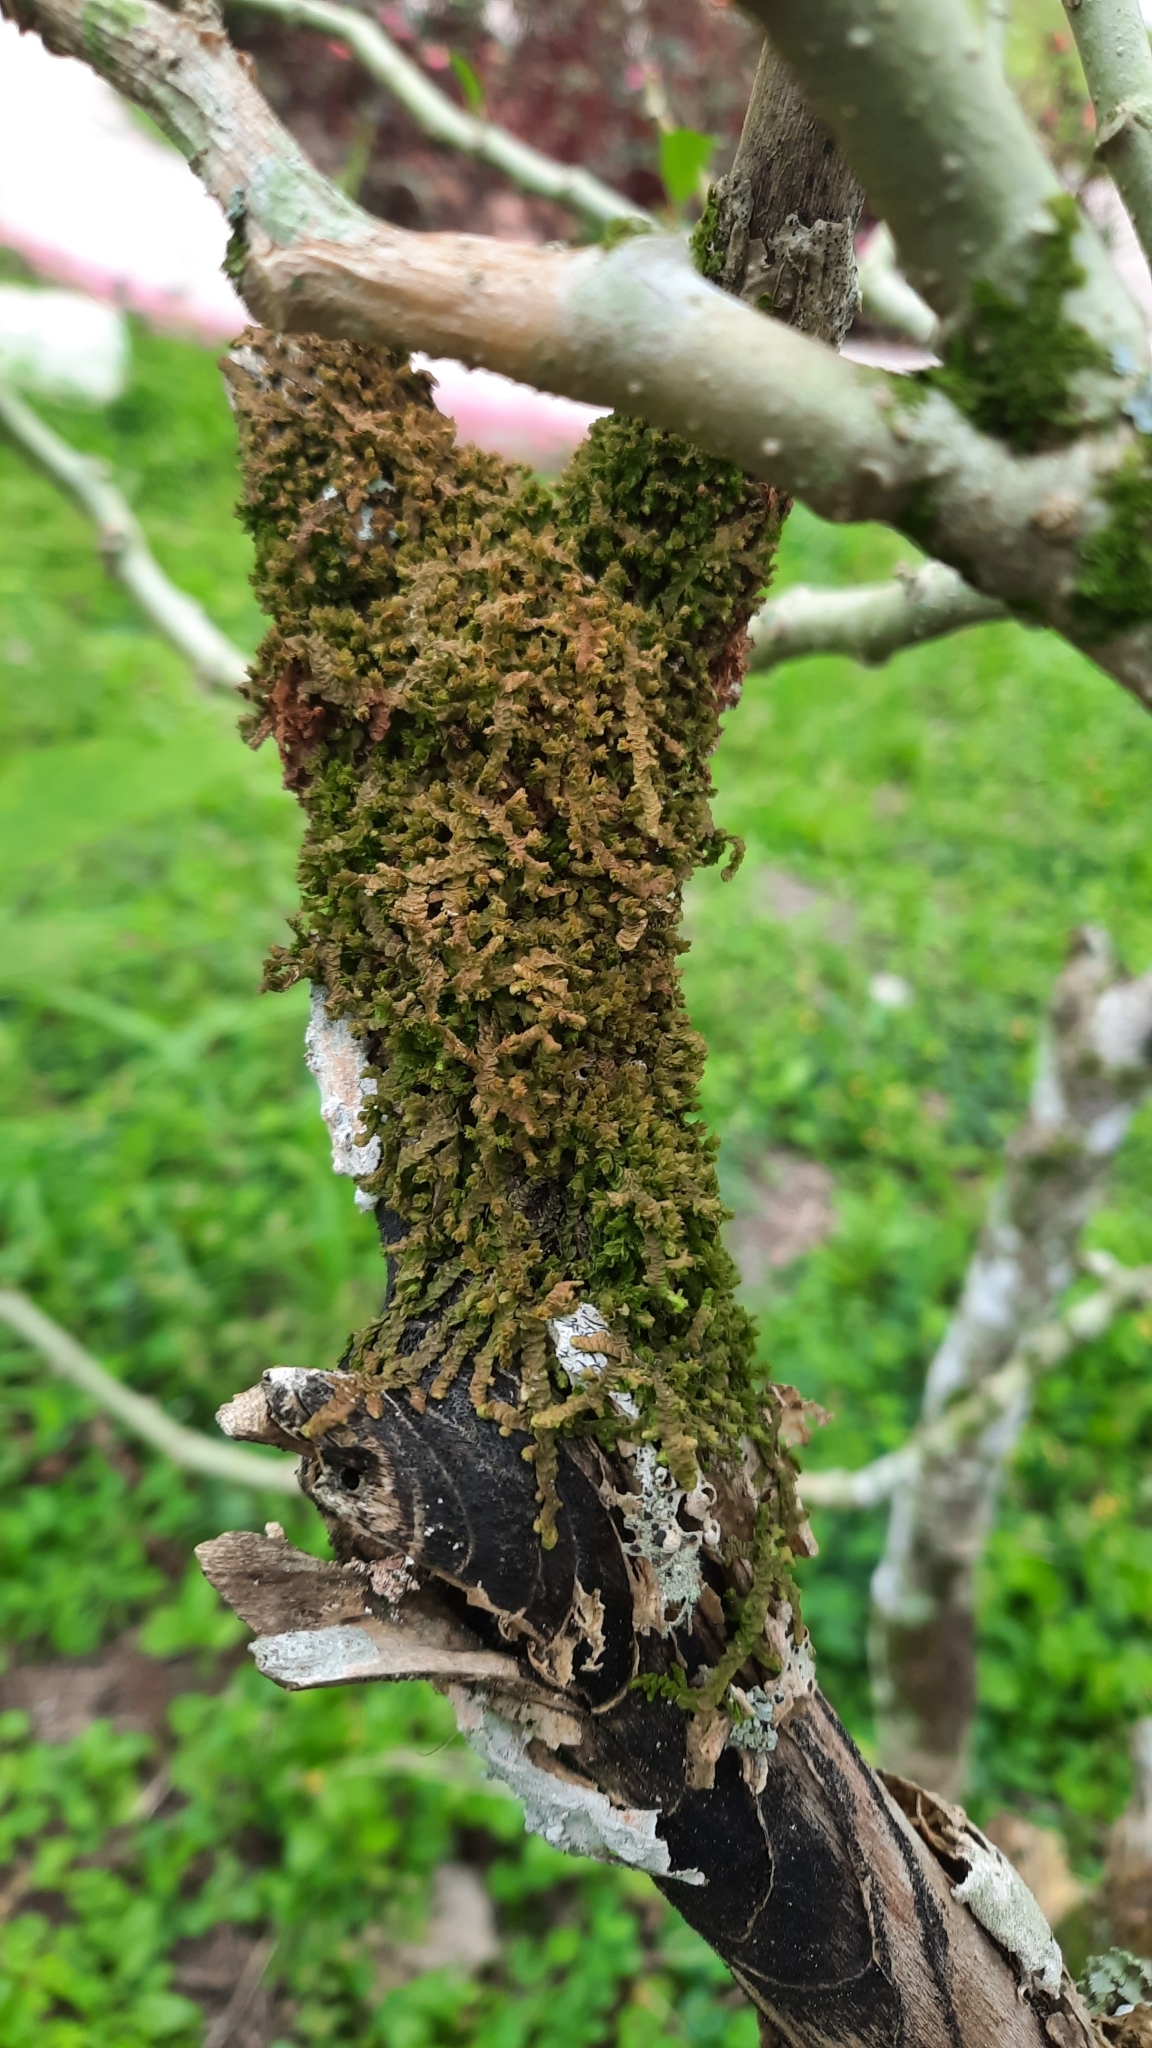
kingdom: Plantae
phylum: Marchantiophyta
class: Jungermanniopsida
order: Porellales
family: Frullaniaceae
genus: Frullania
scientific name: Frullania nisquallensis
